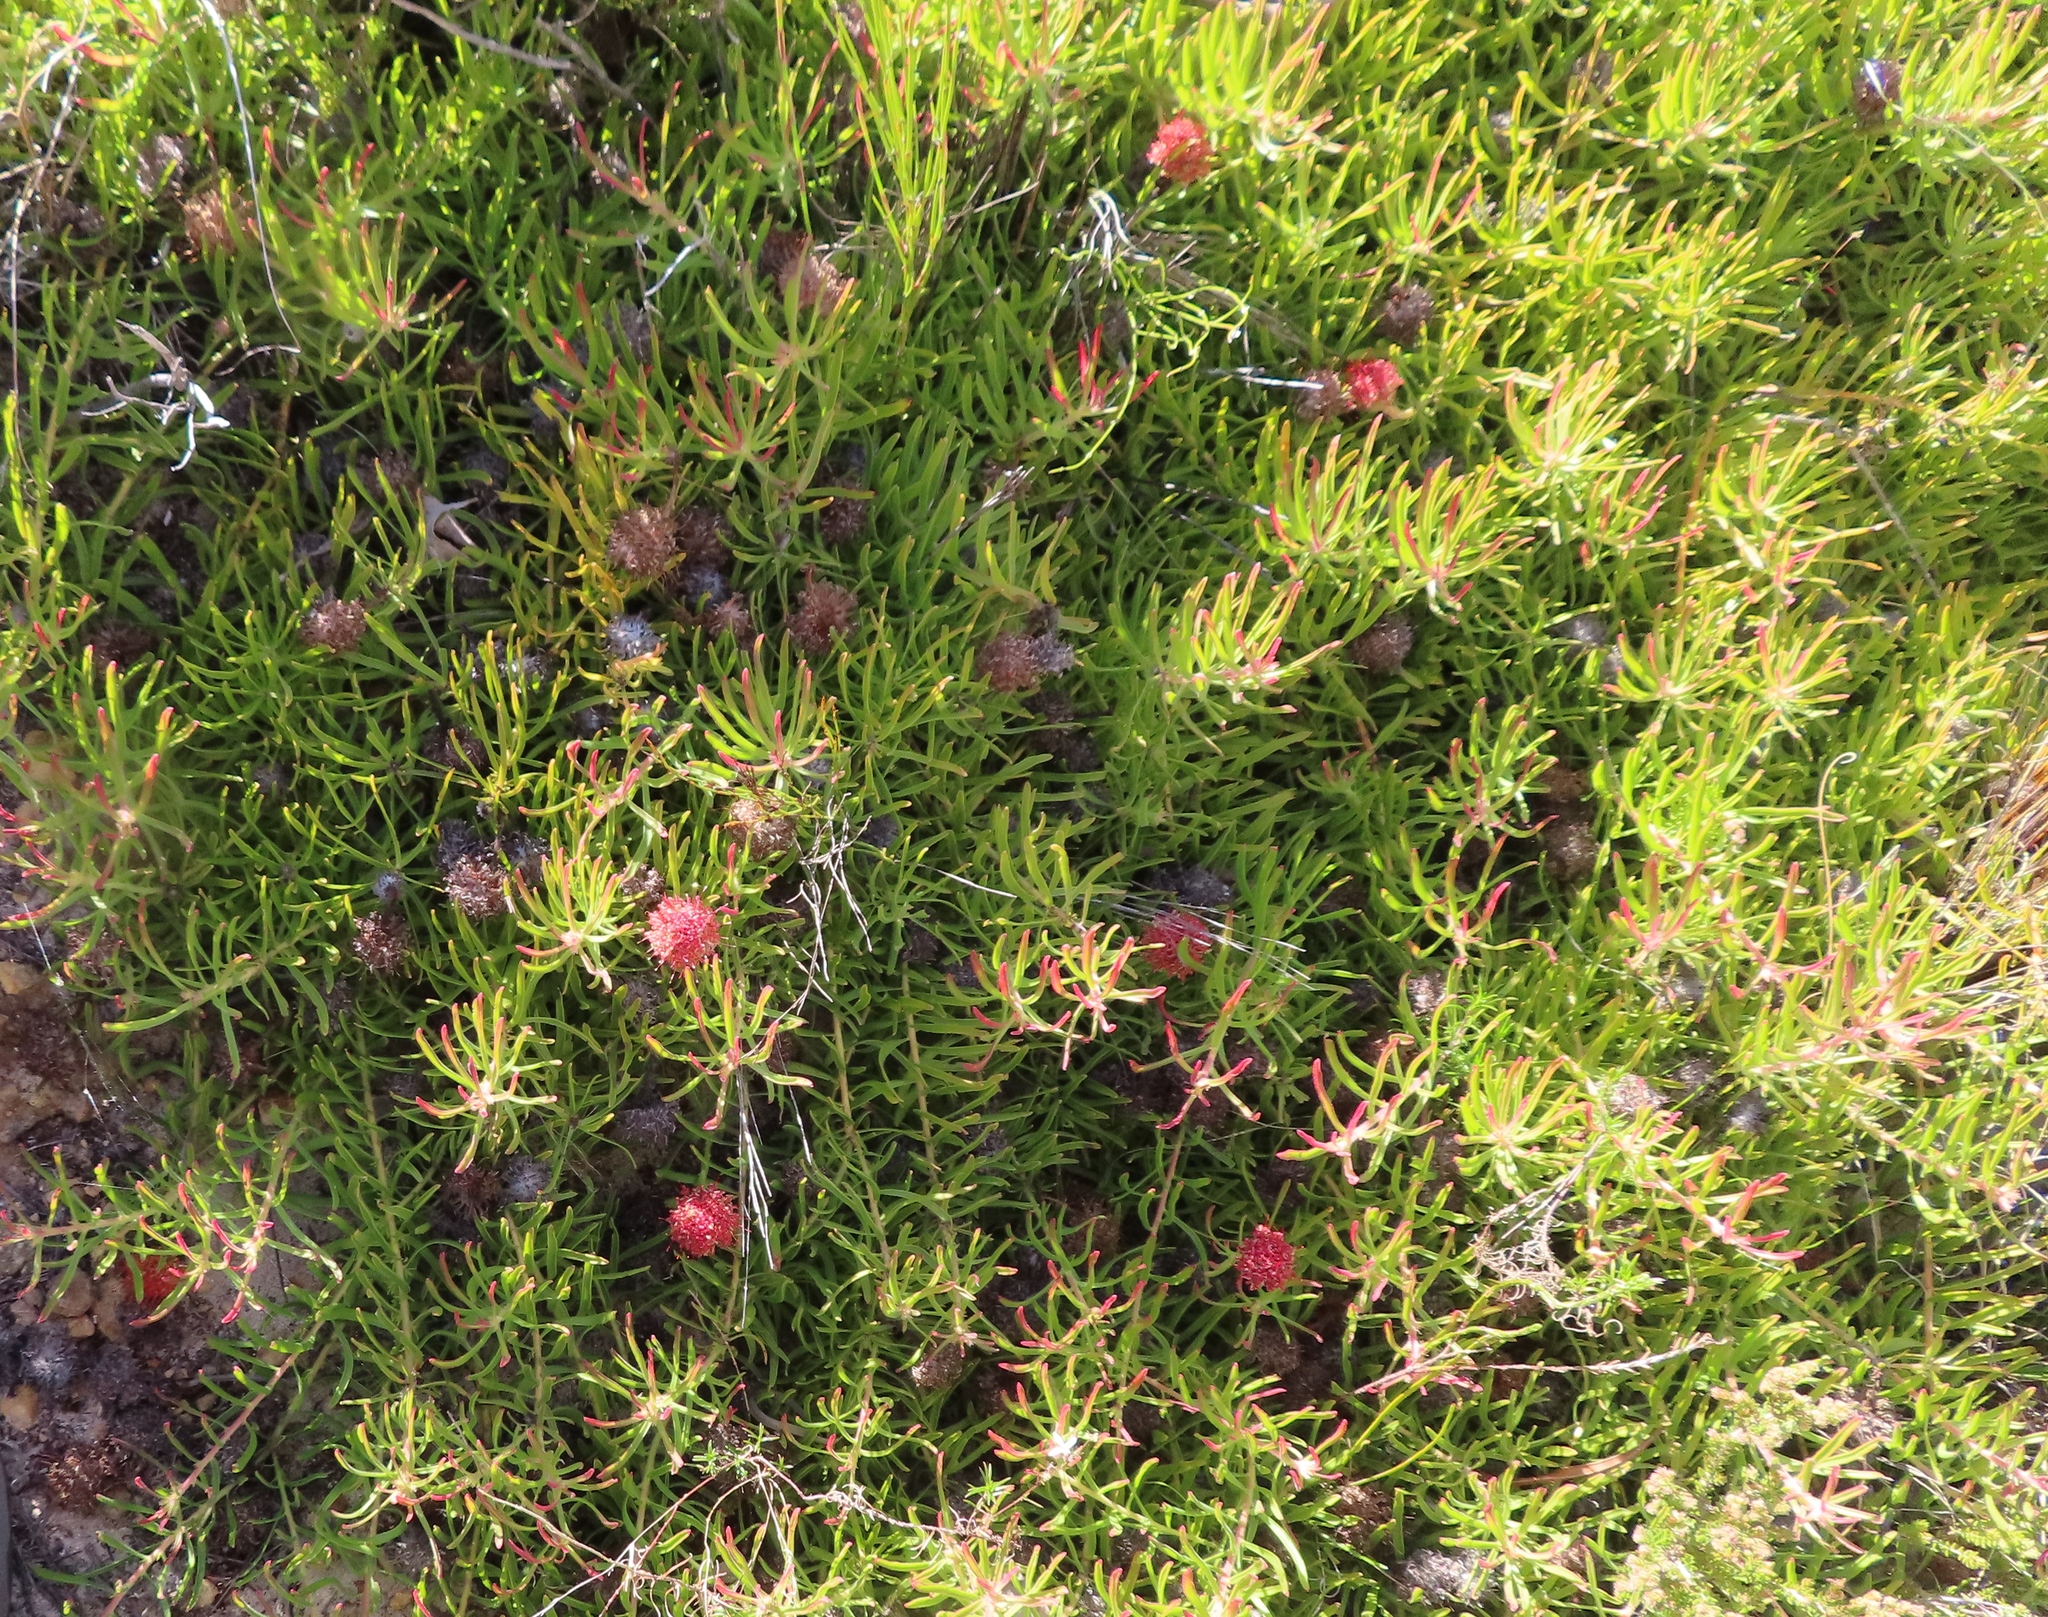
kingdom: Plantae
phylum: Tracheophyta
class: Magnoliopsida
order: Proteales
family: Proteaceae
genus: Leucospermum
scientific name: Leucospermum pedunculatum
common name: White-trailing pincushion
